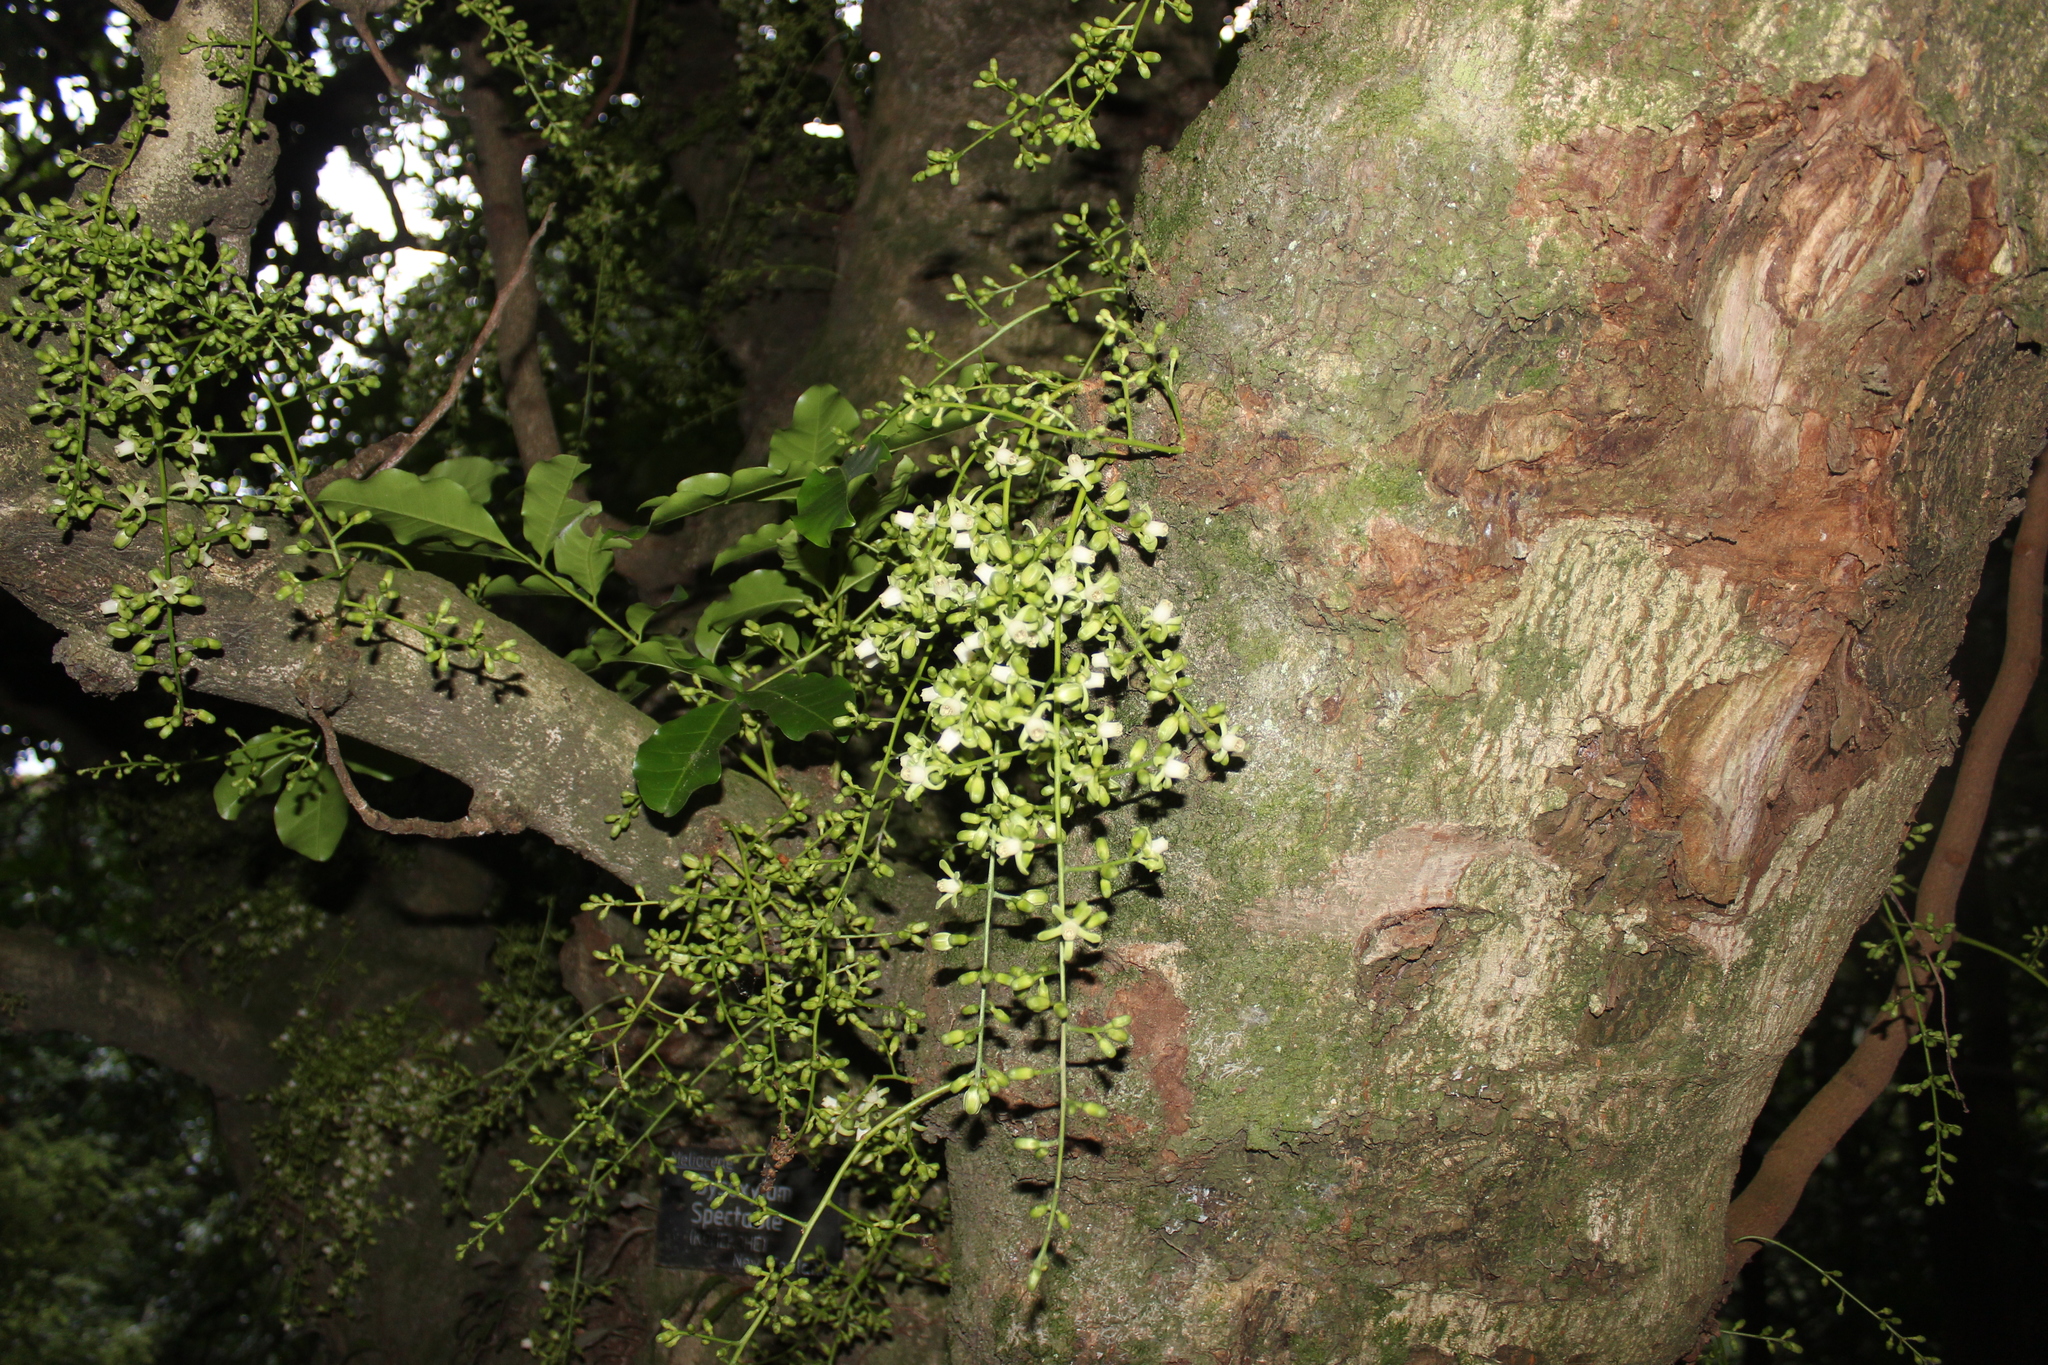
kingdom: Plantae
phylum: Tracheophyta
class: Magnoliopsida
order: Sapindales
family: Meliaceae
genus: Didymocheton
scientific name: Didymocheton spectabilis
